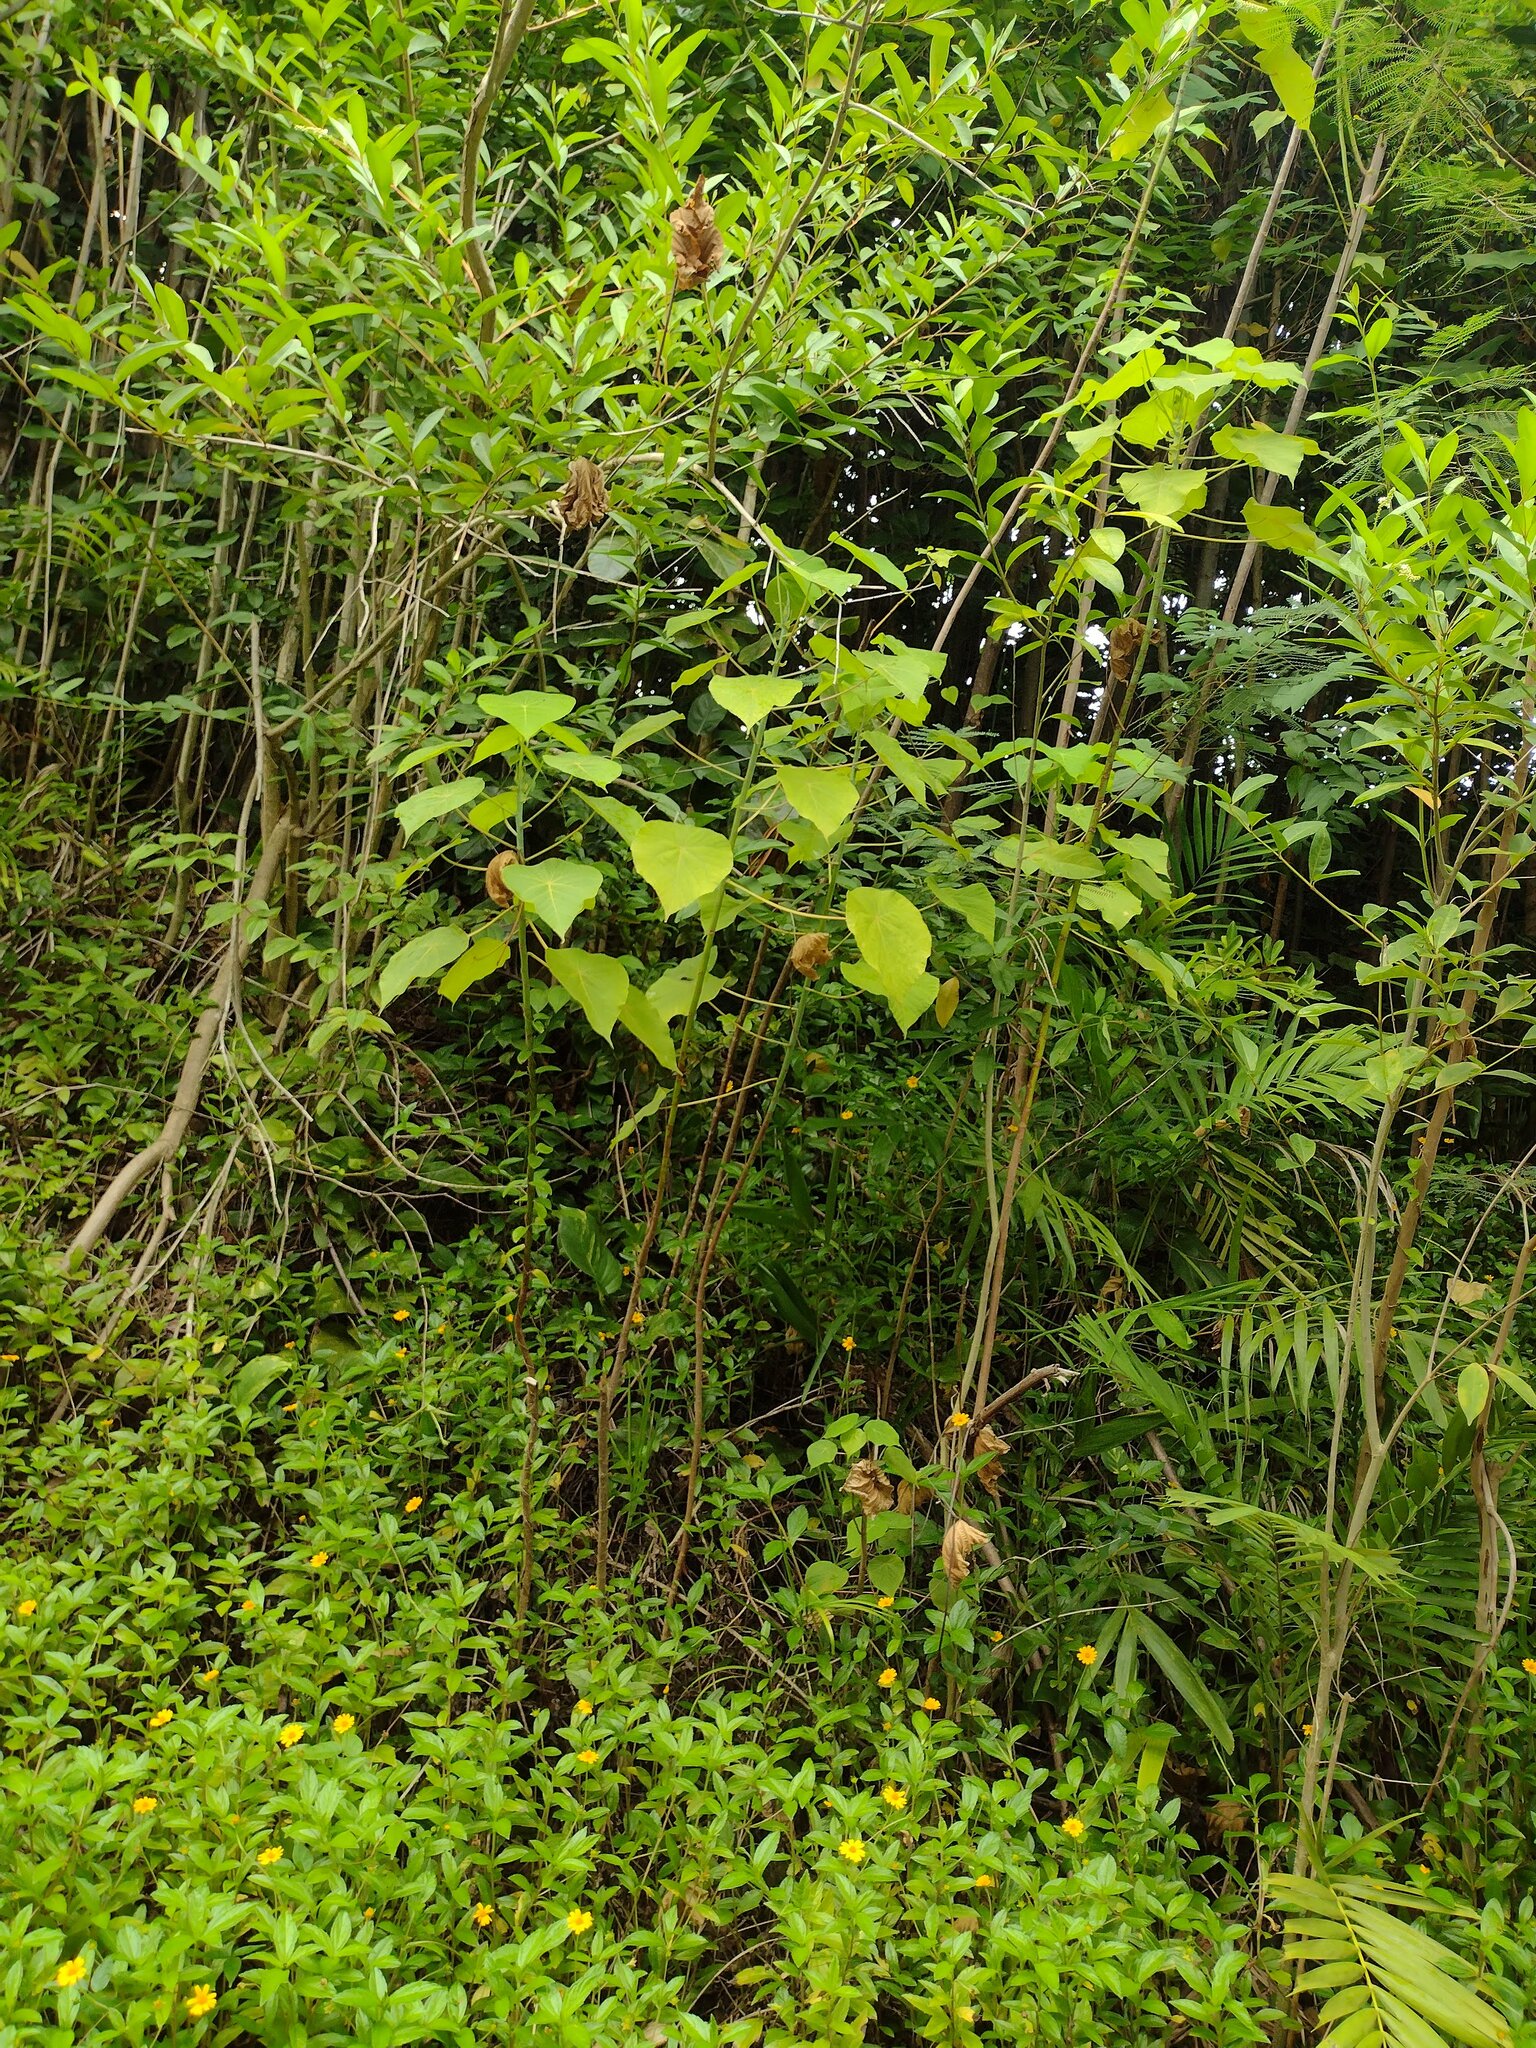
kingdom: Plantae
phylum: Tracheophyta
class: Magnoliopsida
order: Malpighiales
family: Euphorbiaceae
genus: Macaranga
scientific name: Macaranga tanarius
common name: Parasol leaf tree
